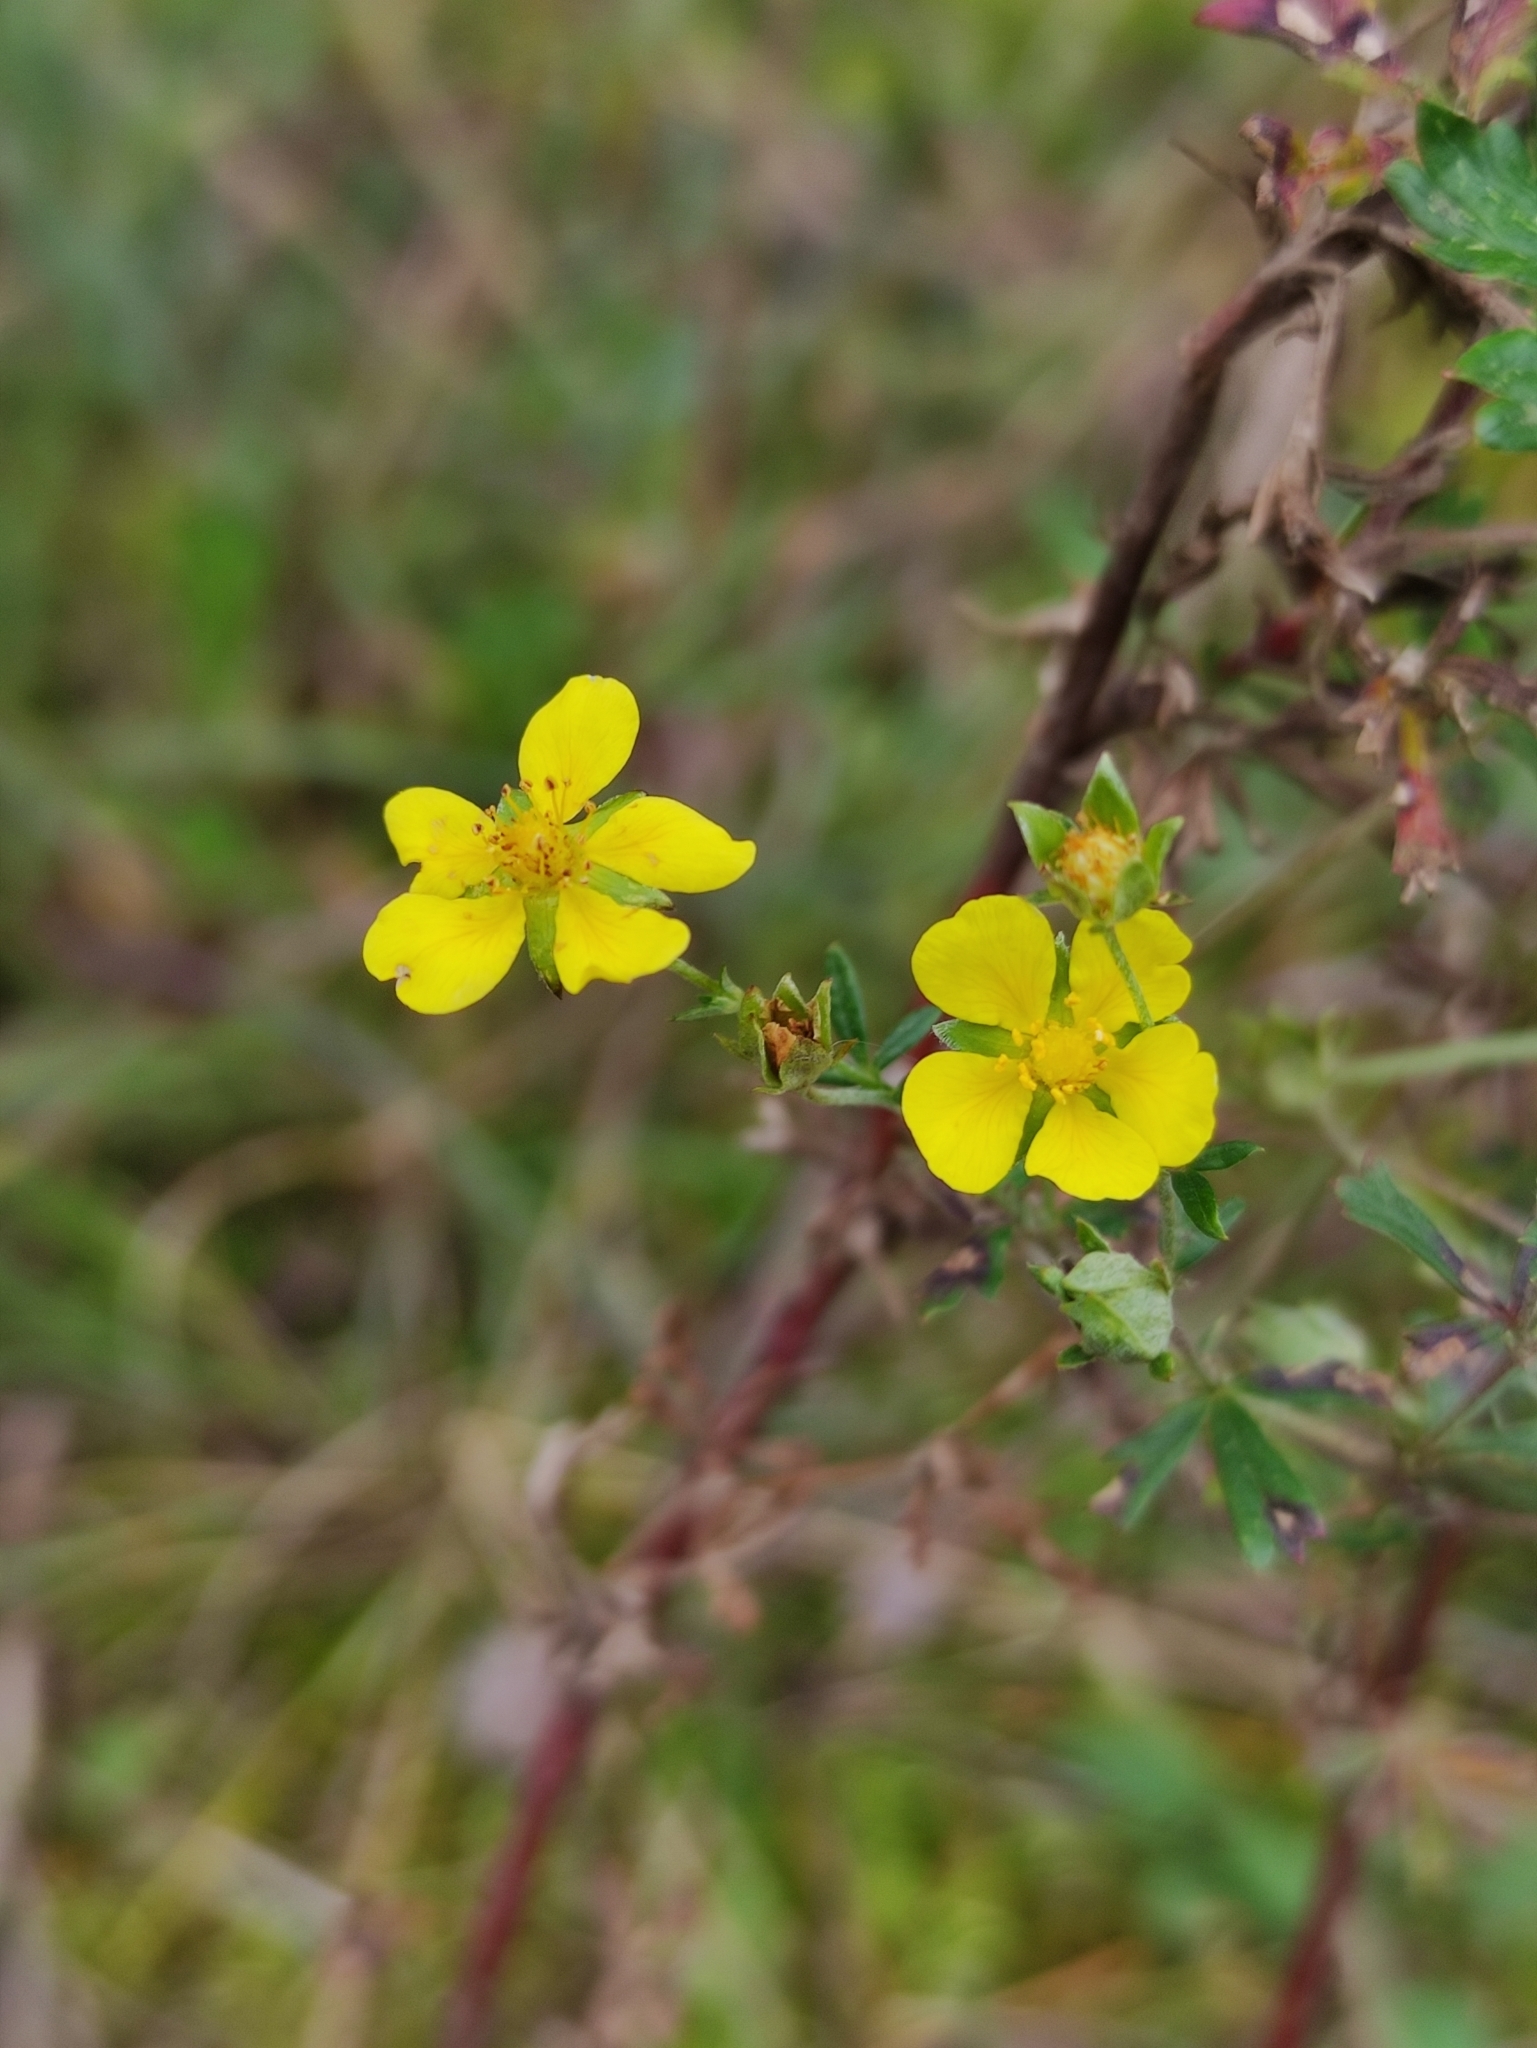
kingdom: Plantae
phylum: Tracheophyta
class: Magnoliopsida
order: Rosales
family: Rosaceae
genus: Potentilla
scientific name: Potentilla argentea
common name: Hoary cinquefoil
